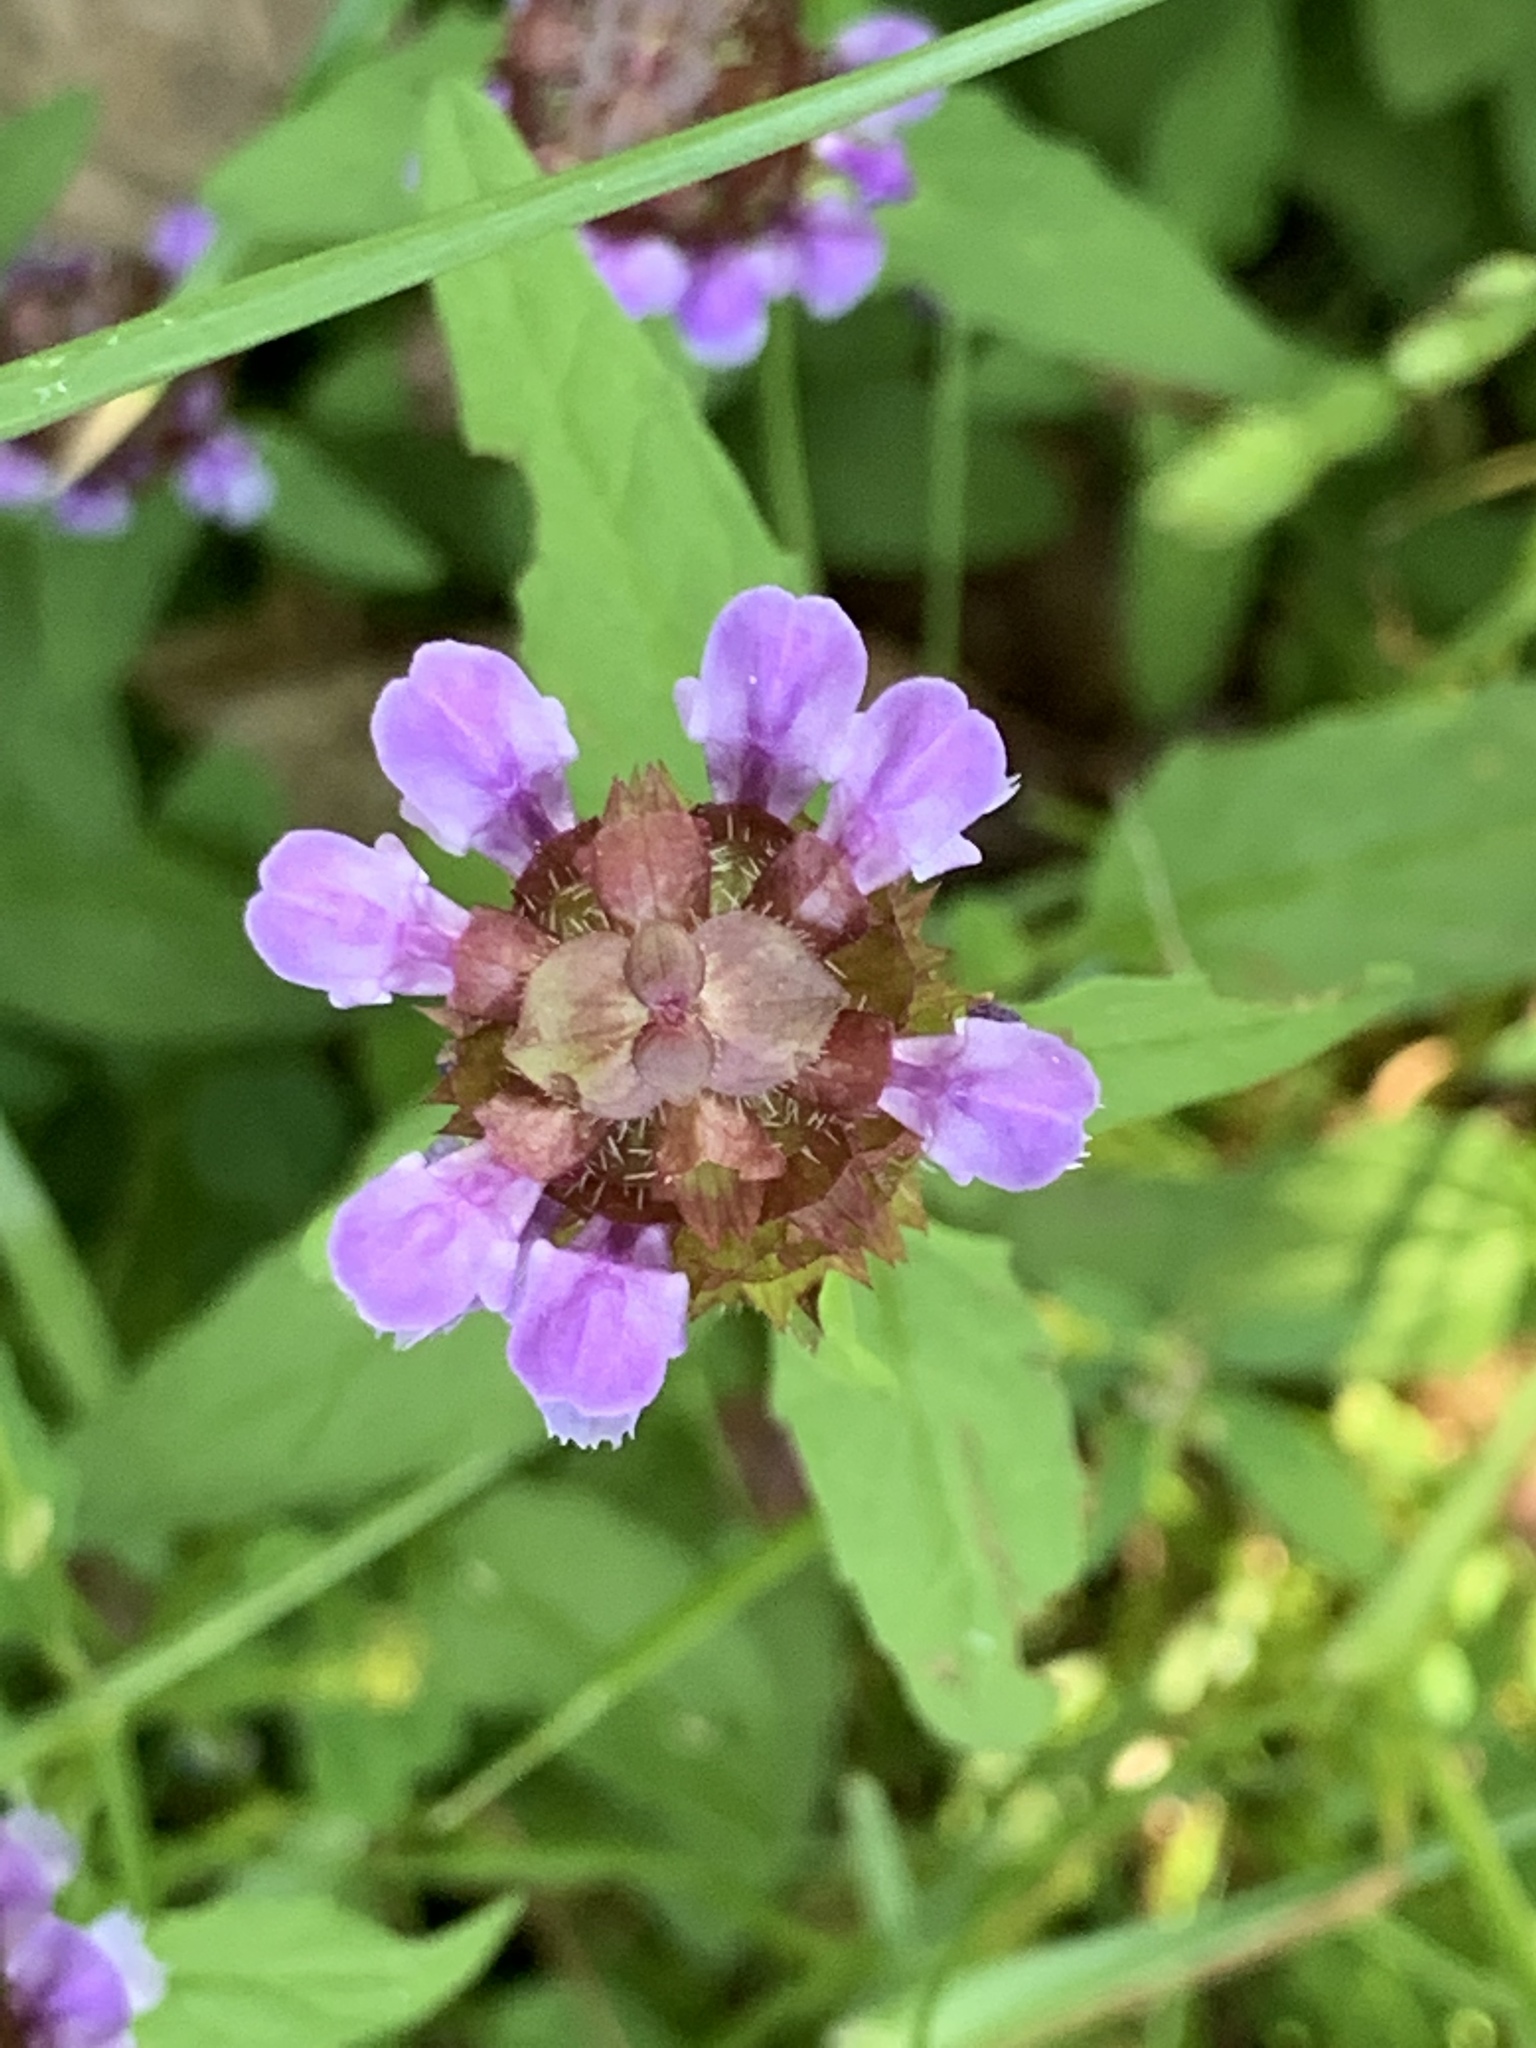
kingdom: Plantae
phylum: Tracheophyta
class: Magnoliopsida
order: Lamiales
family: Lamiaceae
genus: Prunella
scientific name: Prunella vulgaris
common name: Heal-all
